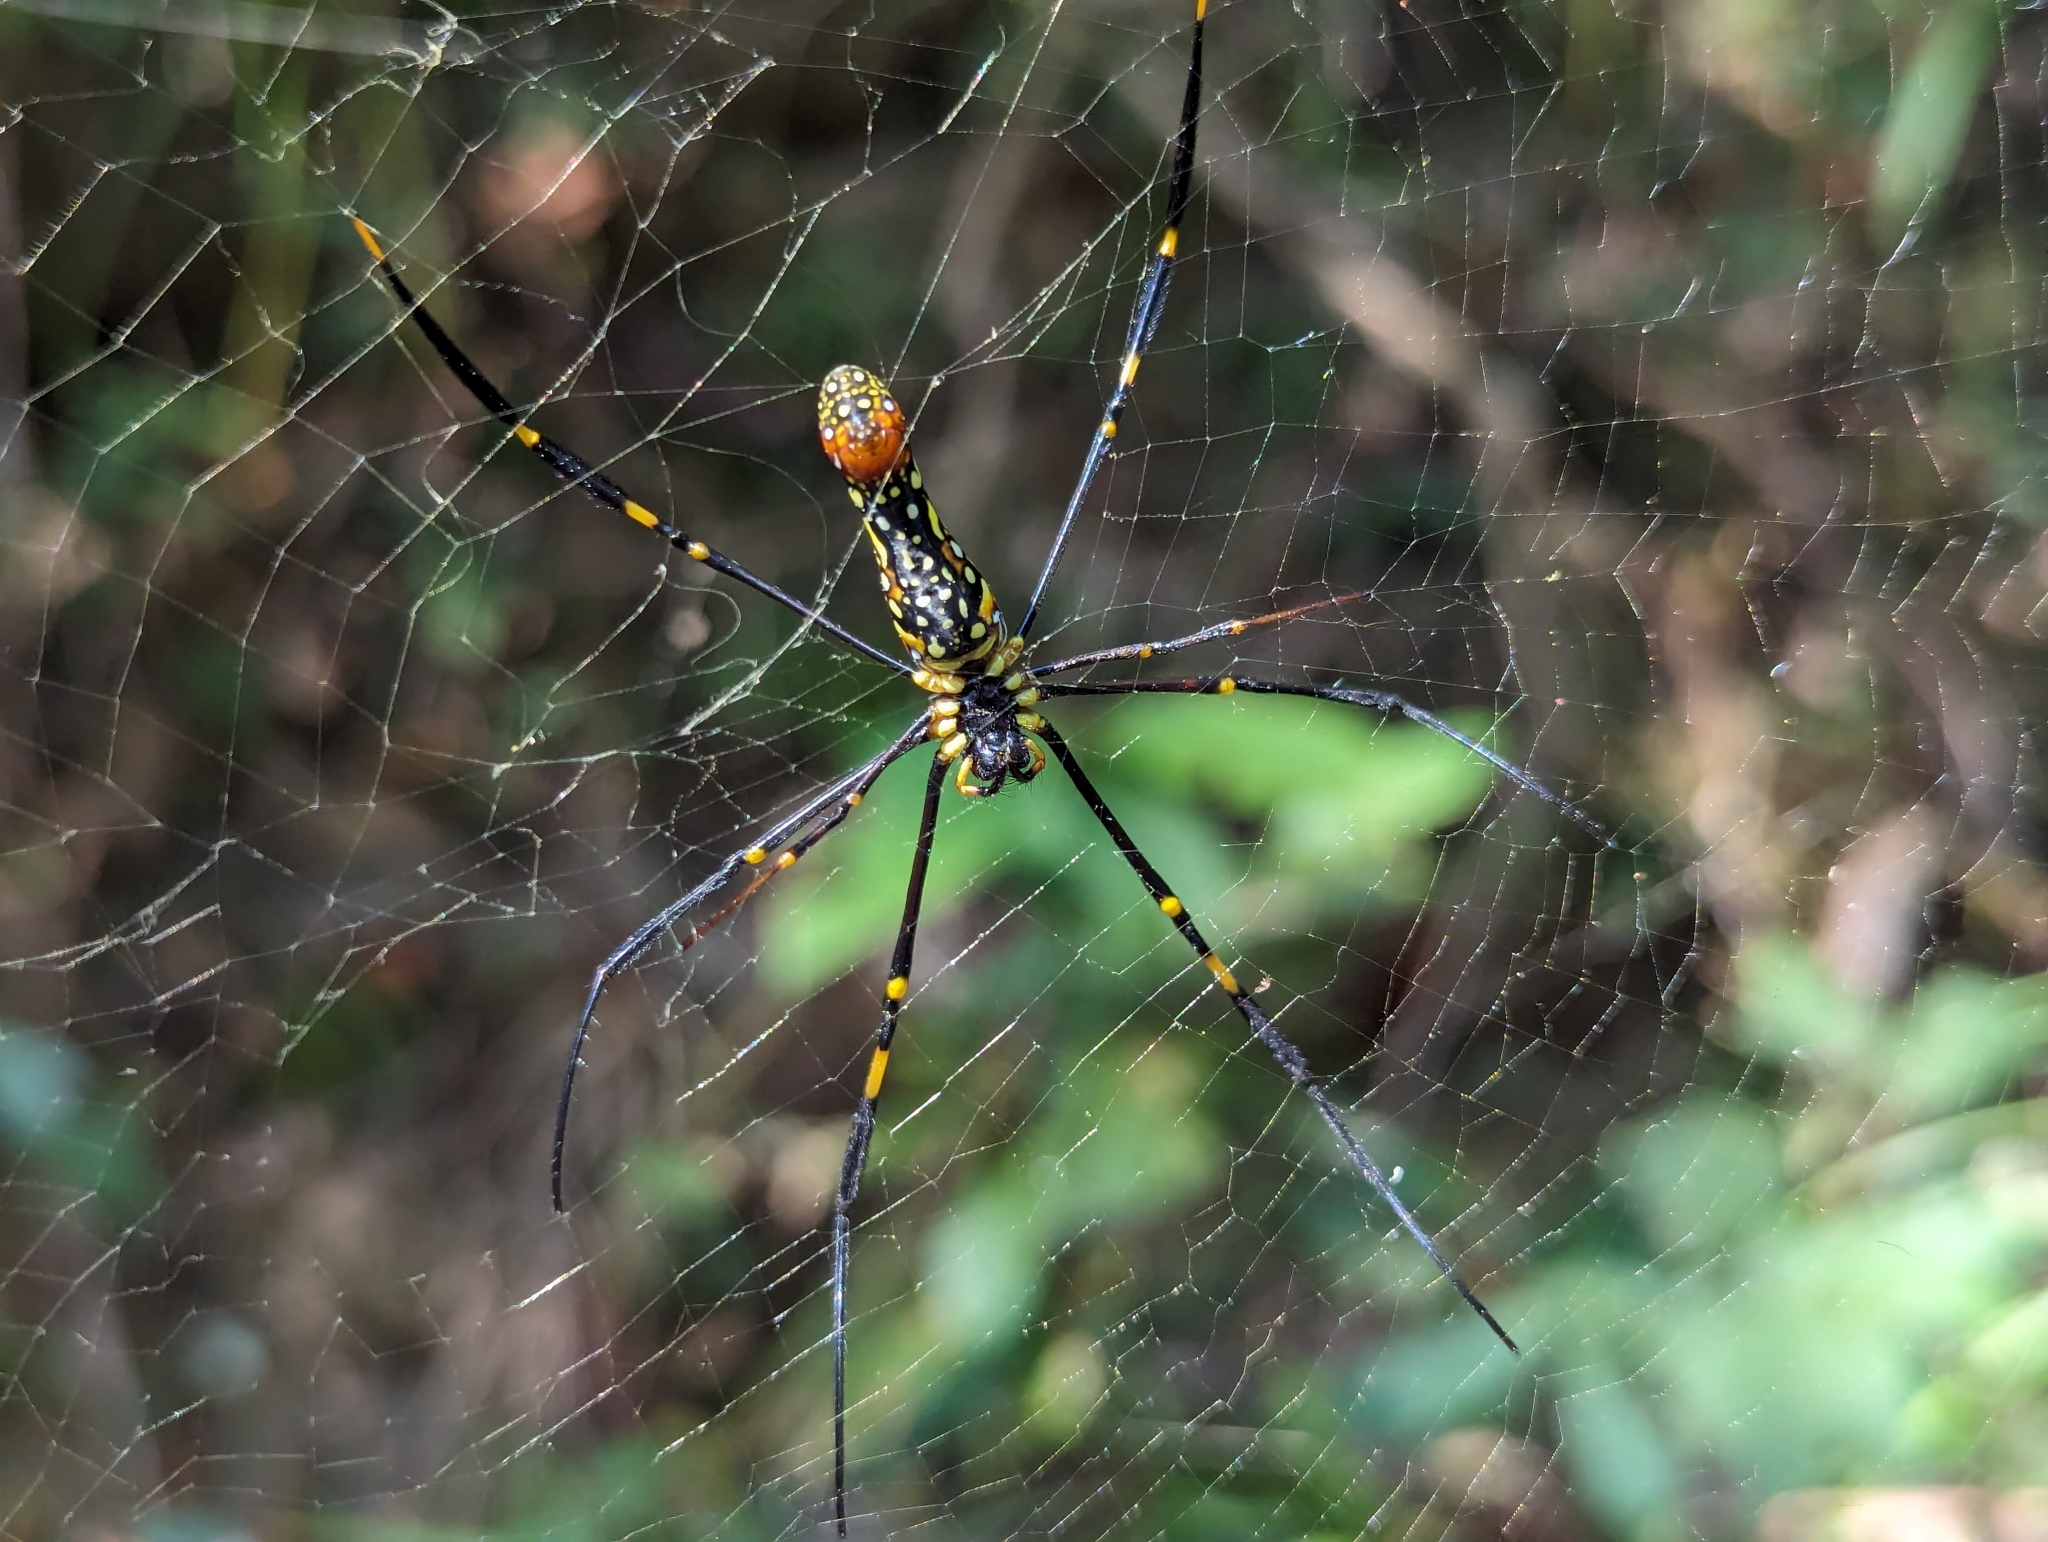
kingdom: Animalia
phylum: Arthropoda
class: Arachnida
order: Araneae
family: Araneidae
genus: Nephila
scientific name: Nephila pilipes
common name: Giant golden orb weaver
